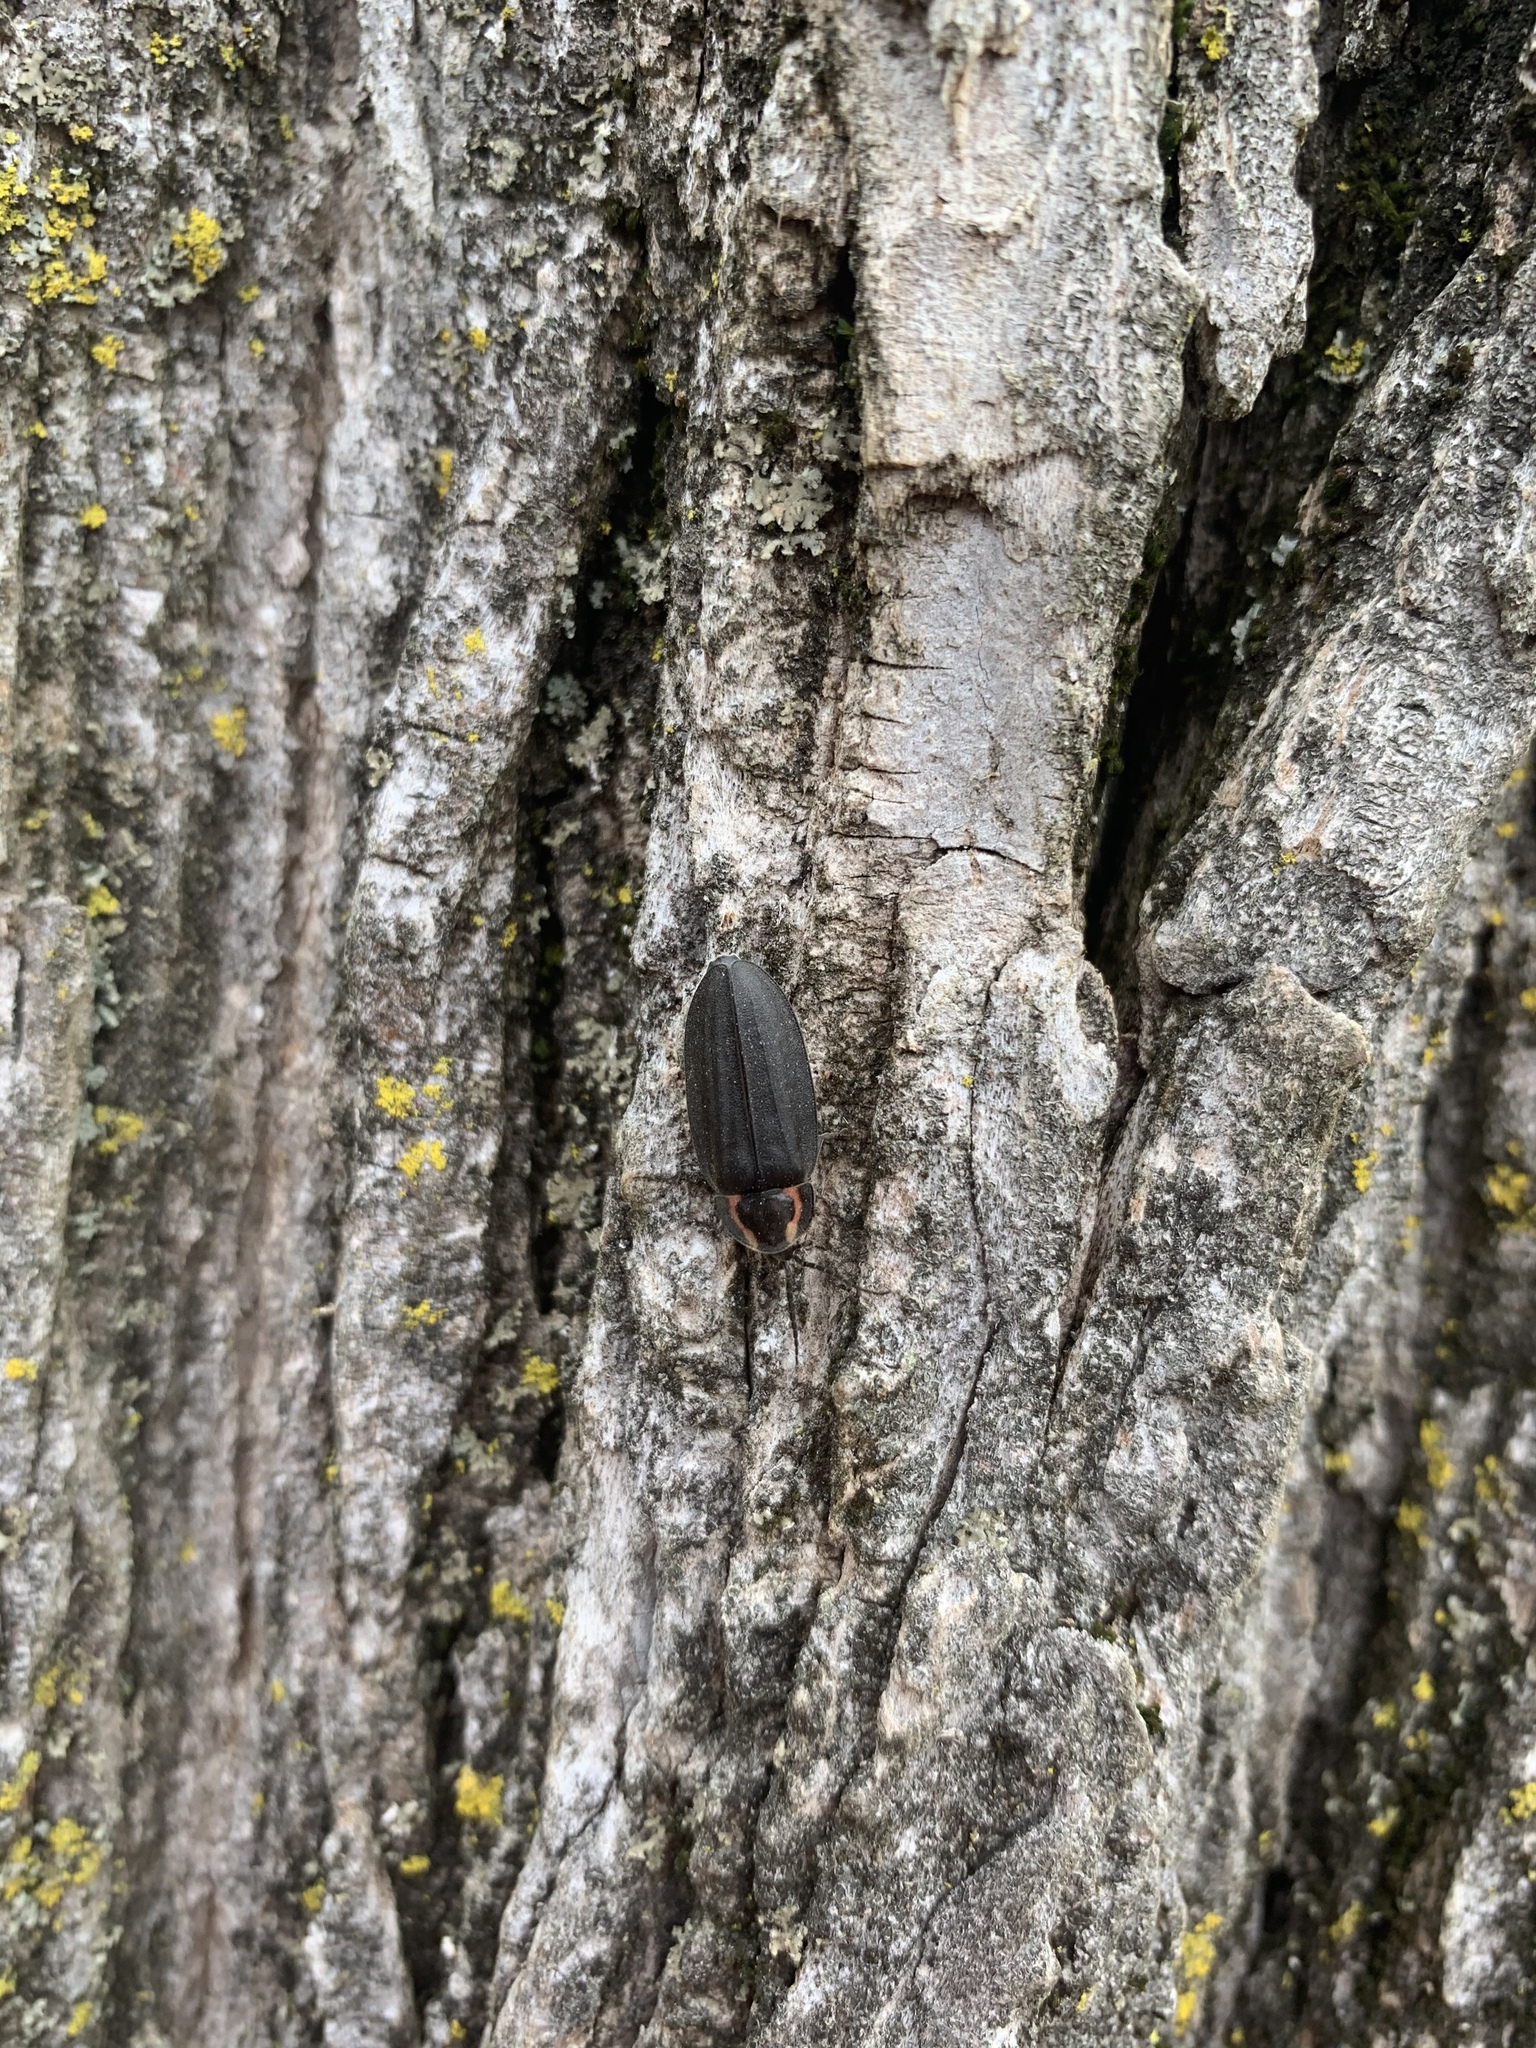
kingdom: Animalia
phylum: Arthropoda
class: Insecta
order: Coleoptera
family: Lampyridae
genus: Photinus
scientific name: Photinus corrusca
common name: Winter firefly
